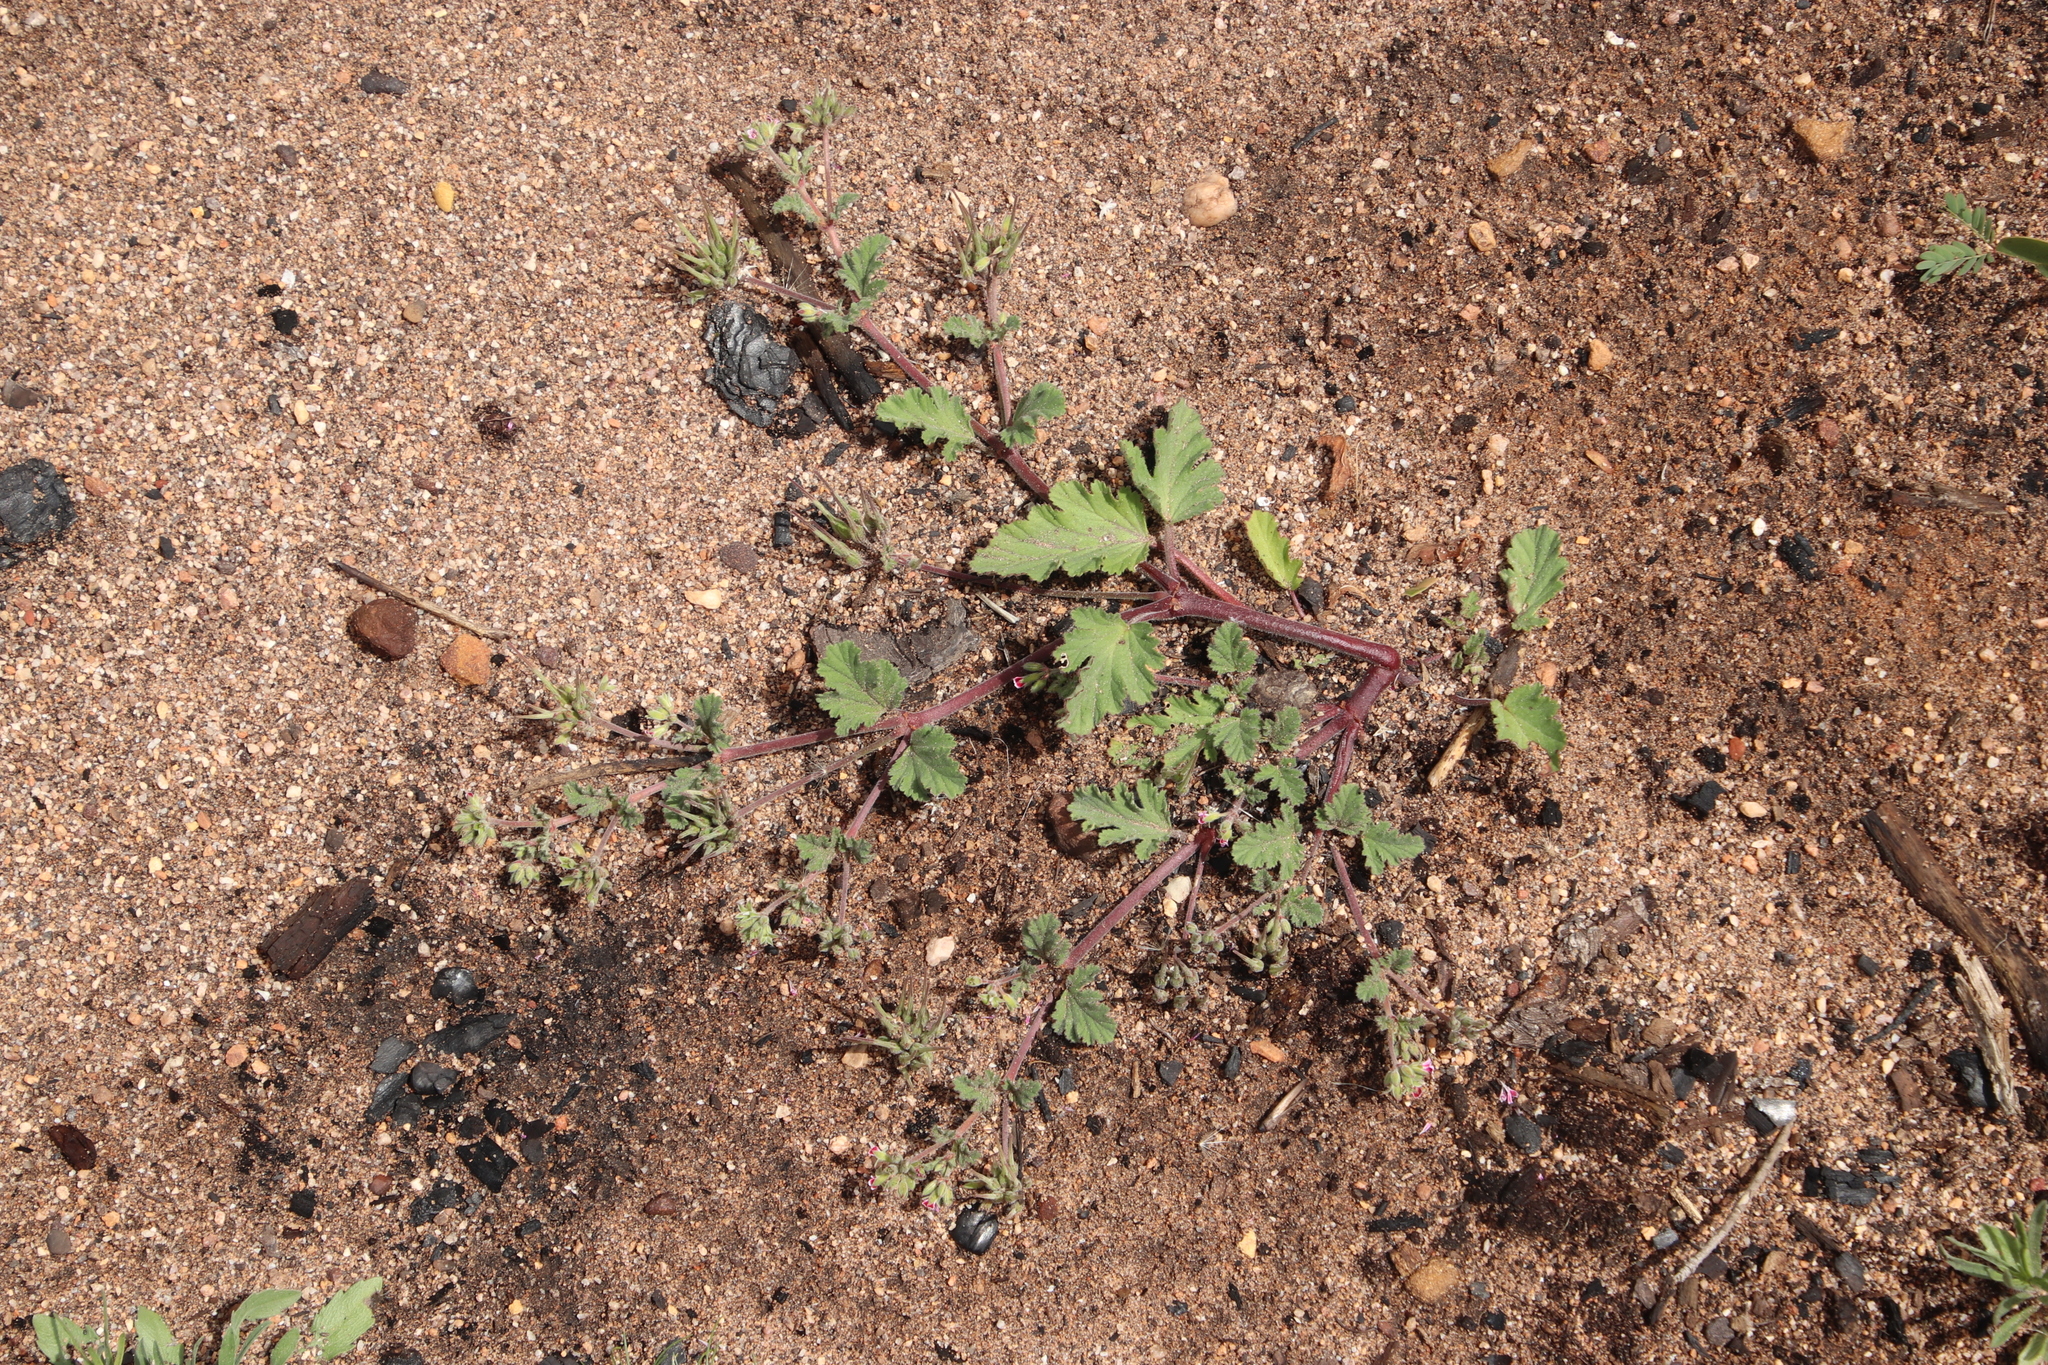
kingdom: Plantae
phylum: Tracheophyta
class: Magnoliopsida
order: Geraniales
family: Geraniaceae
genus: Pelargonium
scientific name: Pelargonium althaeoides
